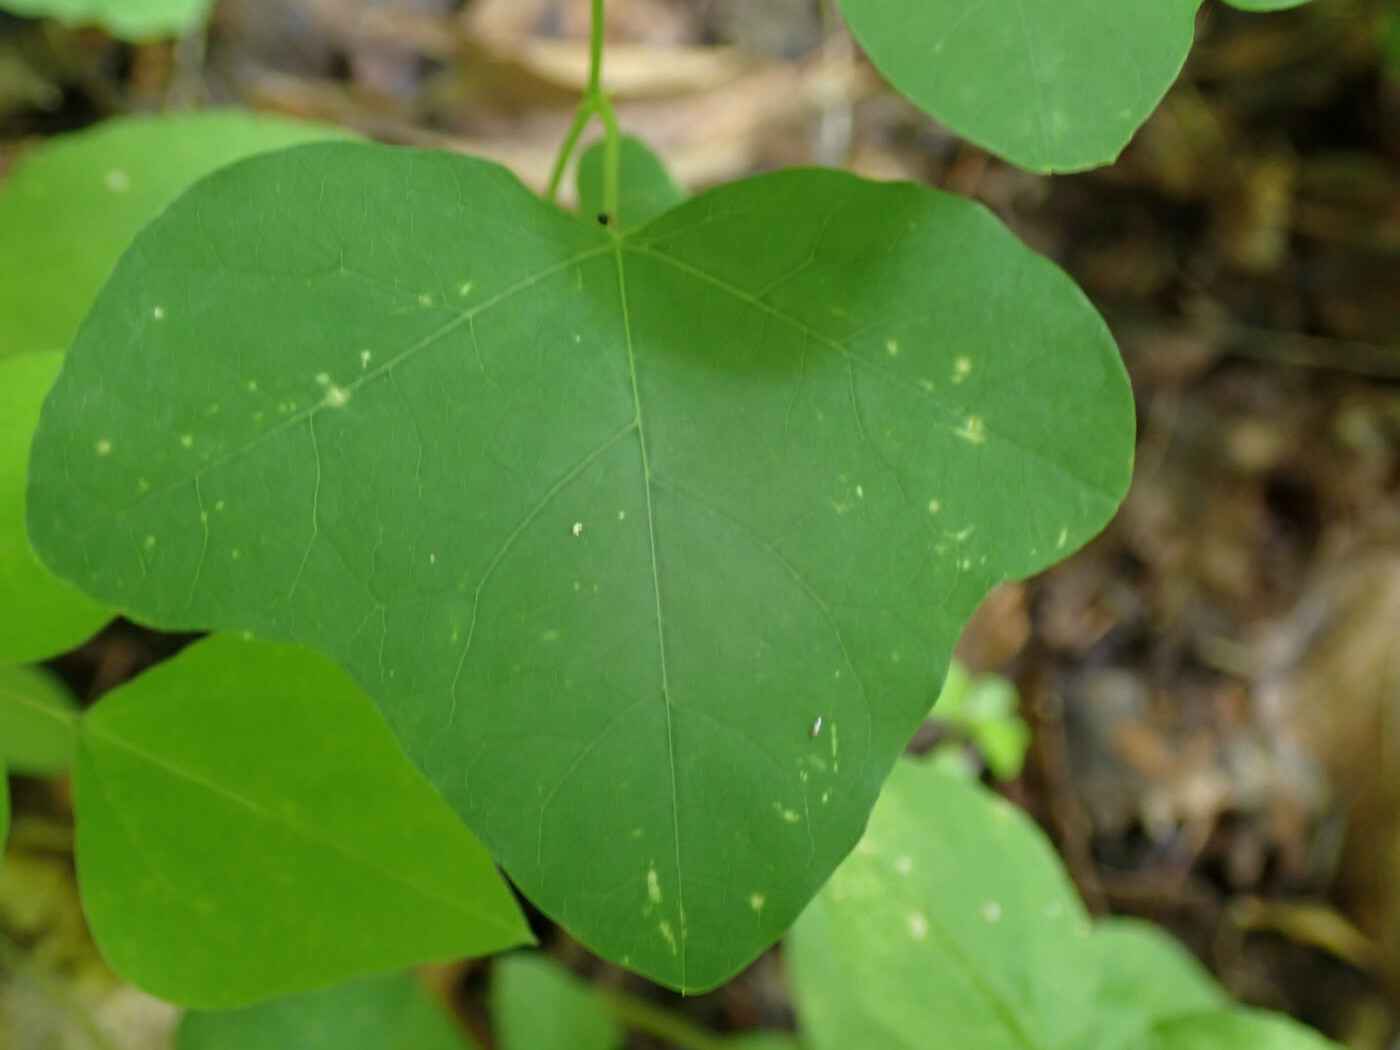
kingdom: Plantae
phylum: Tracheophyta
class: Magnoliopsida
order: Malpighiales
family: Passifloraceae
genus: Passiflora
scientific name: Passiflora lutea
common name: Yellow passionflower
